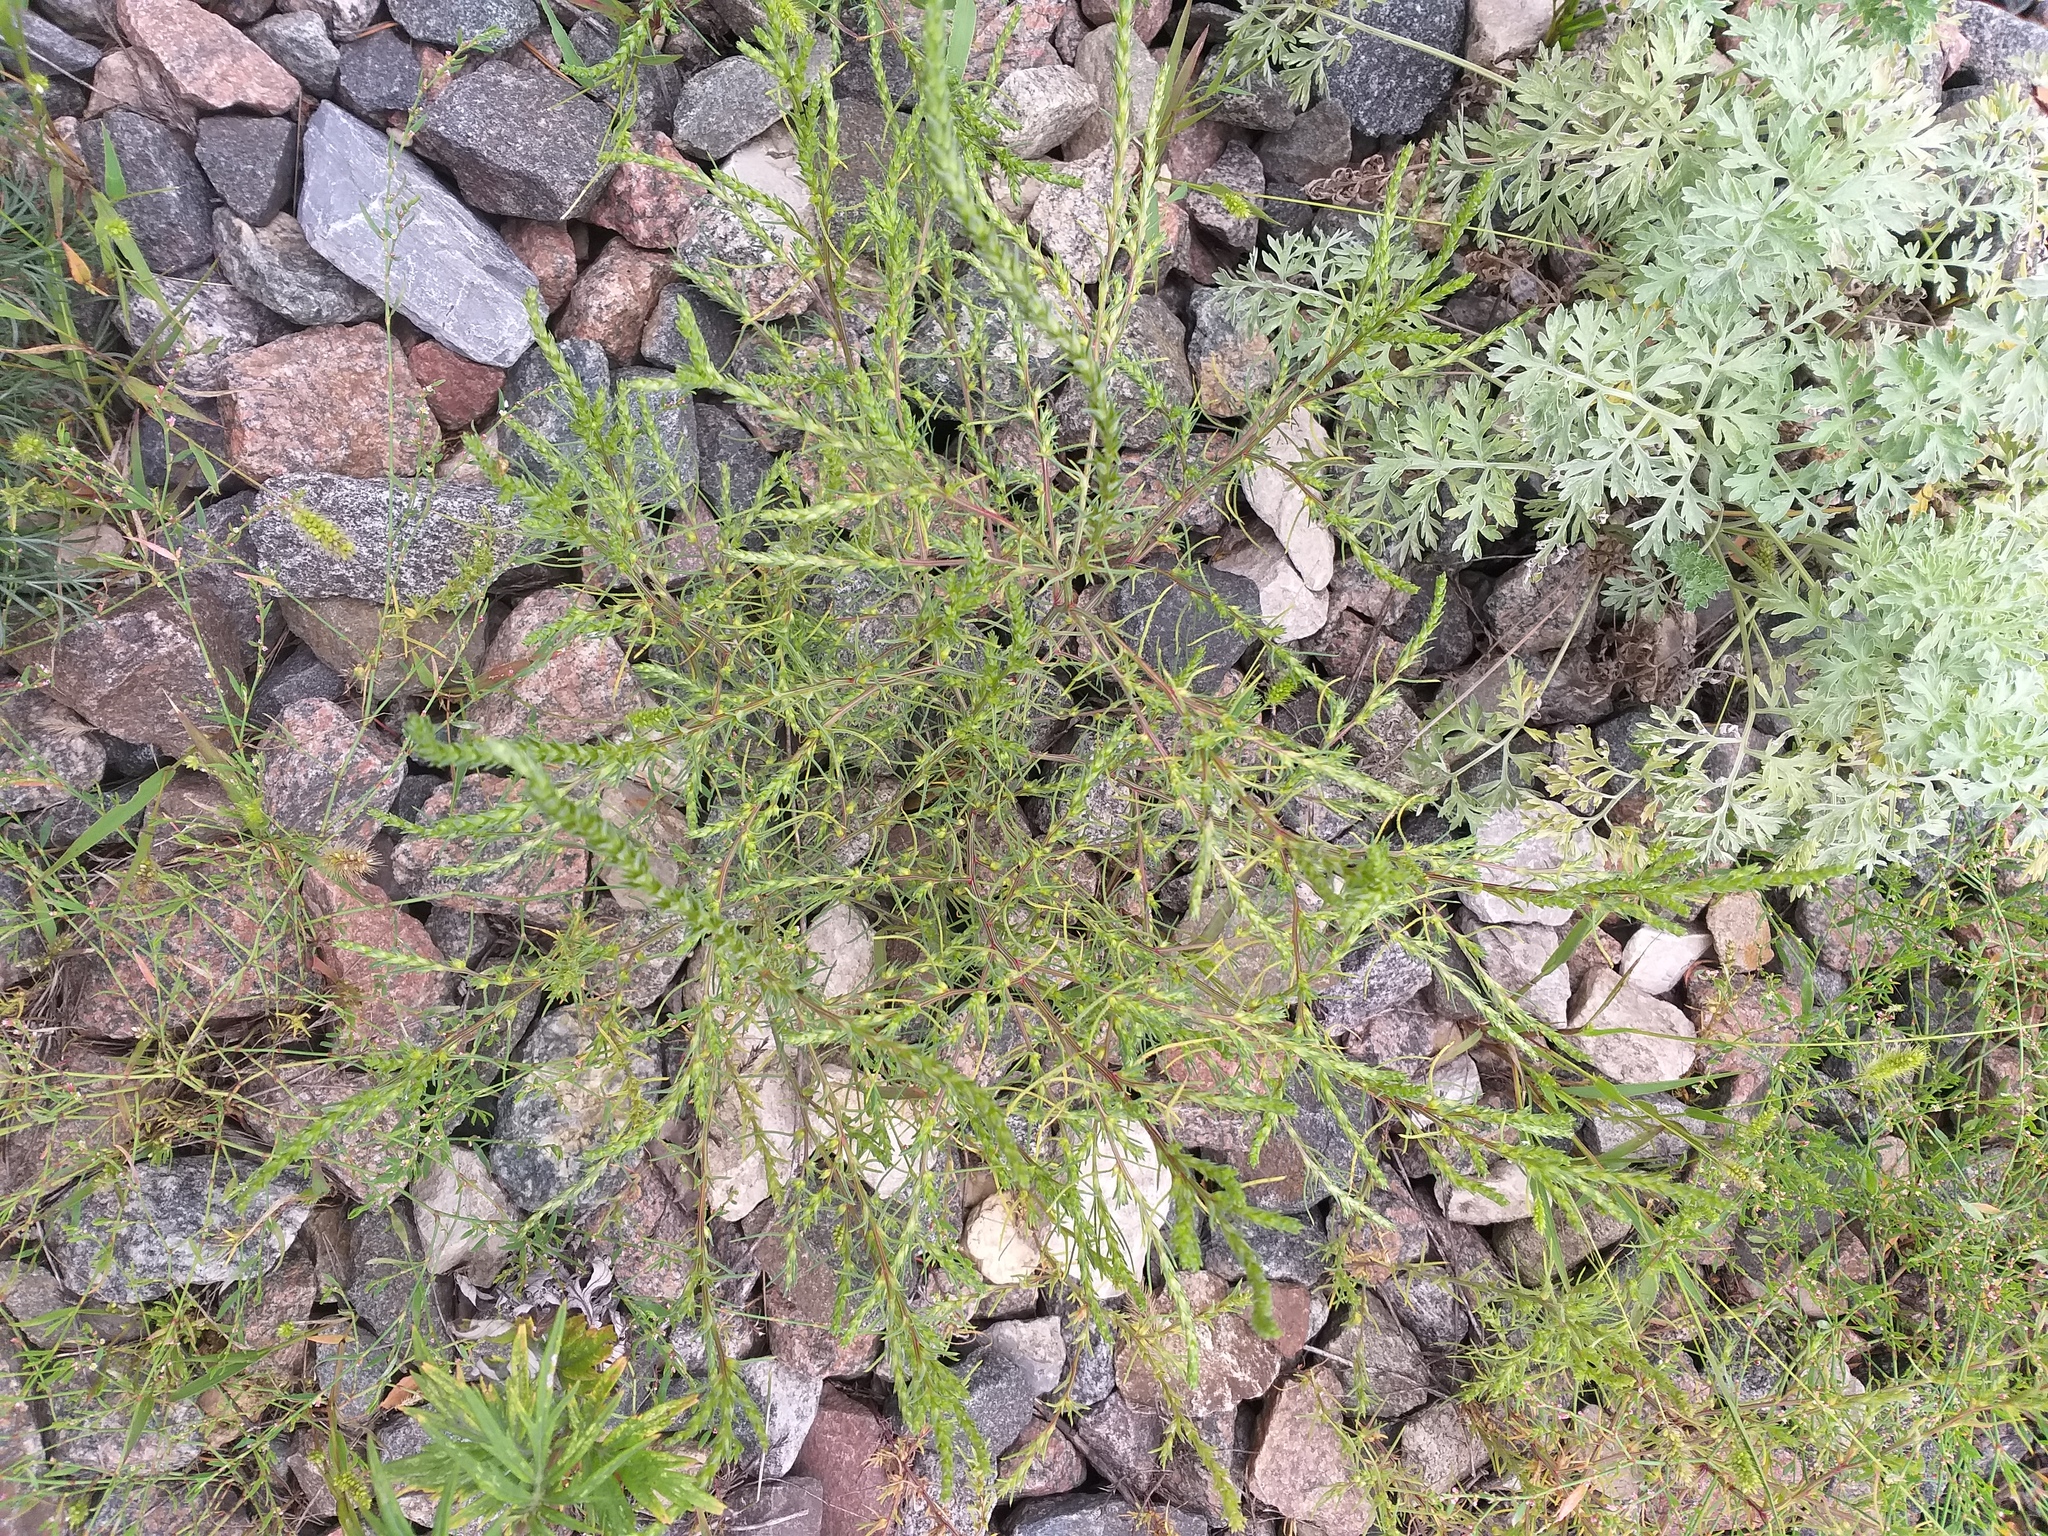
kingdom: Plantae
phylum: Tracheophyta
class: Magnoliopsida
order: Caryophyllales
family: Amaranthaceae
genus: Salsola
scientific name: Salsola collina
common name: Tumbleweed
